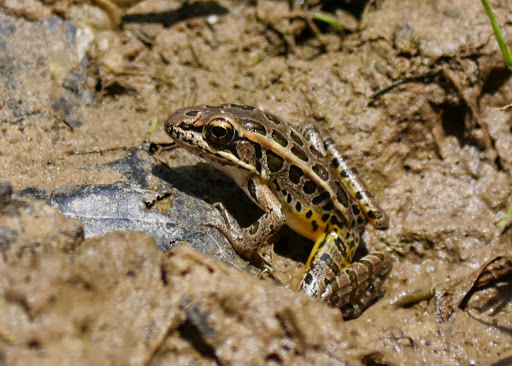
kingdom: Animalia
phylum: Chordata
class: Amphibia
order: Anura
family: Ranidae
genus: Lithobates
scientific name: Lithobates palustris
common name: Pickerel frog
